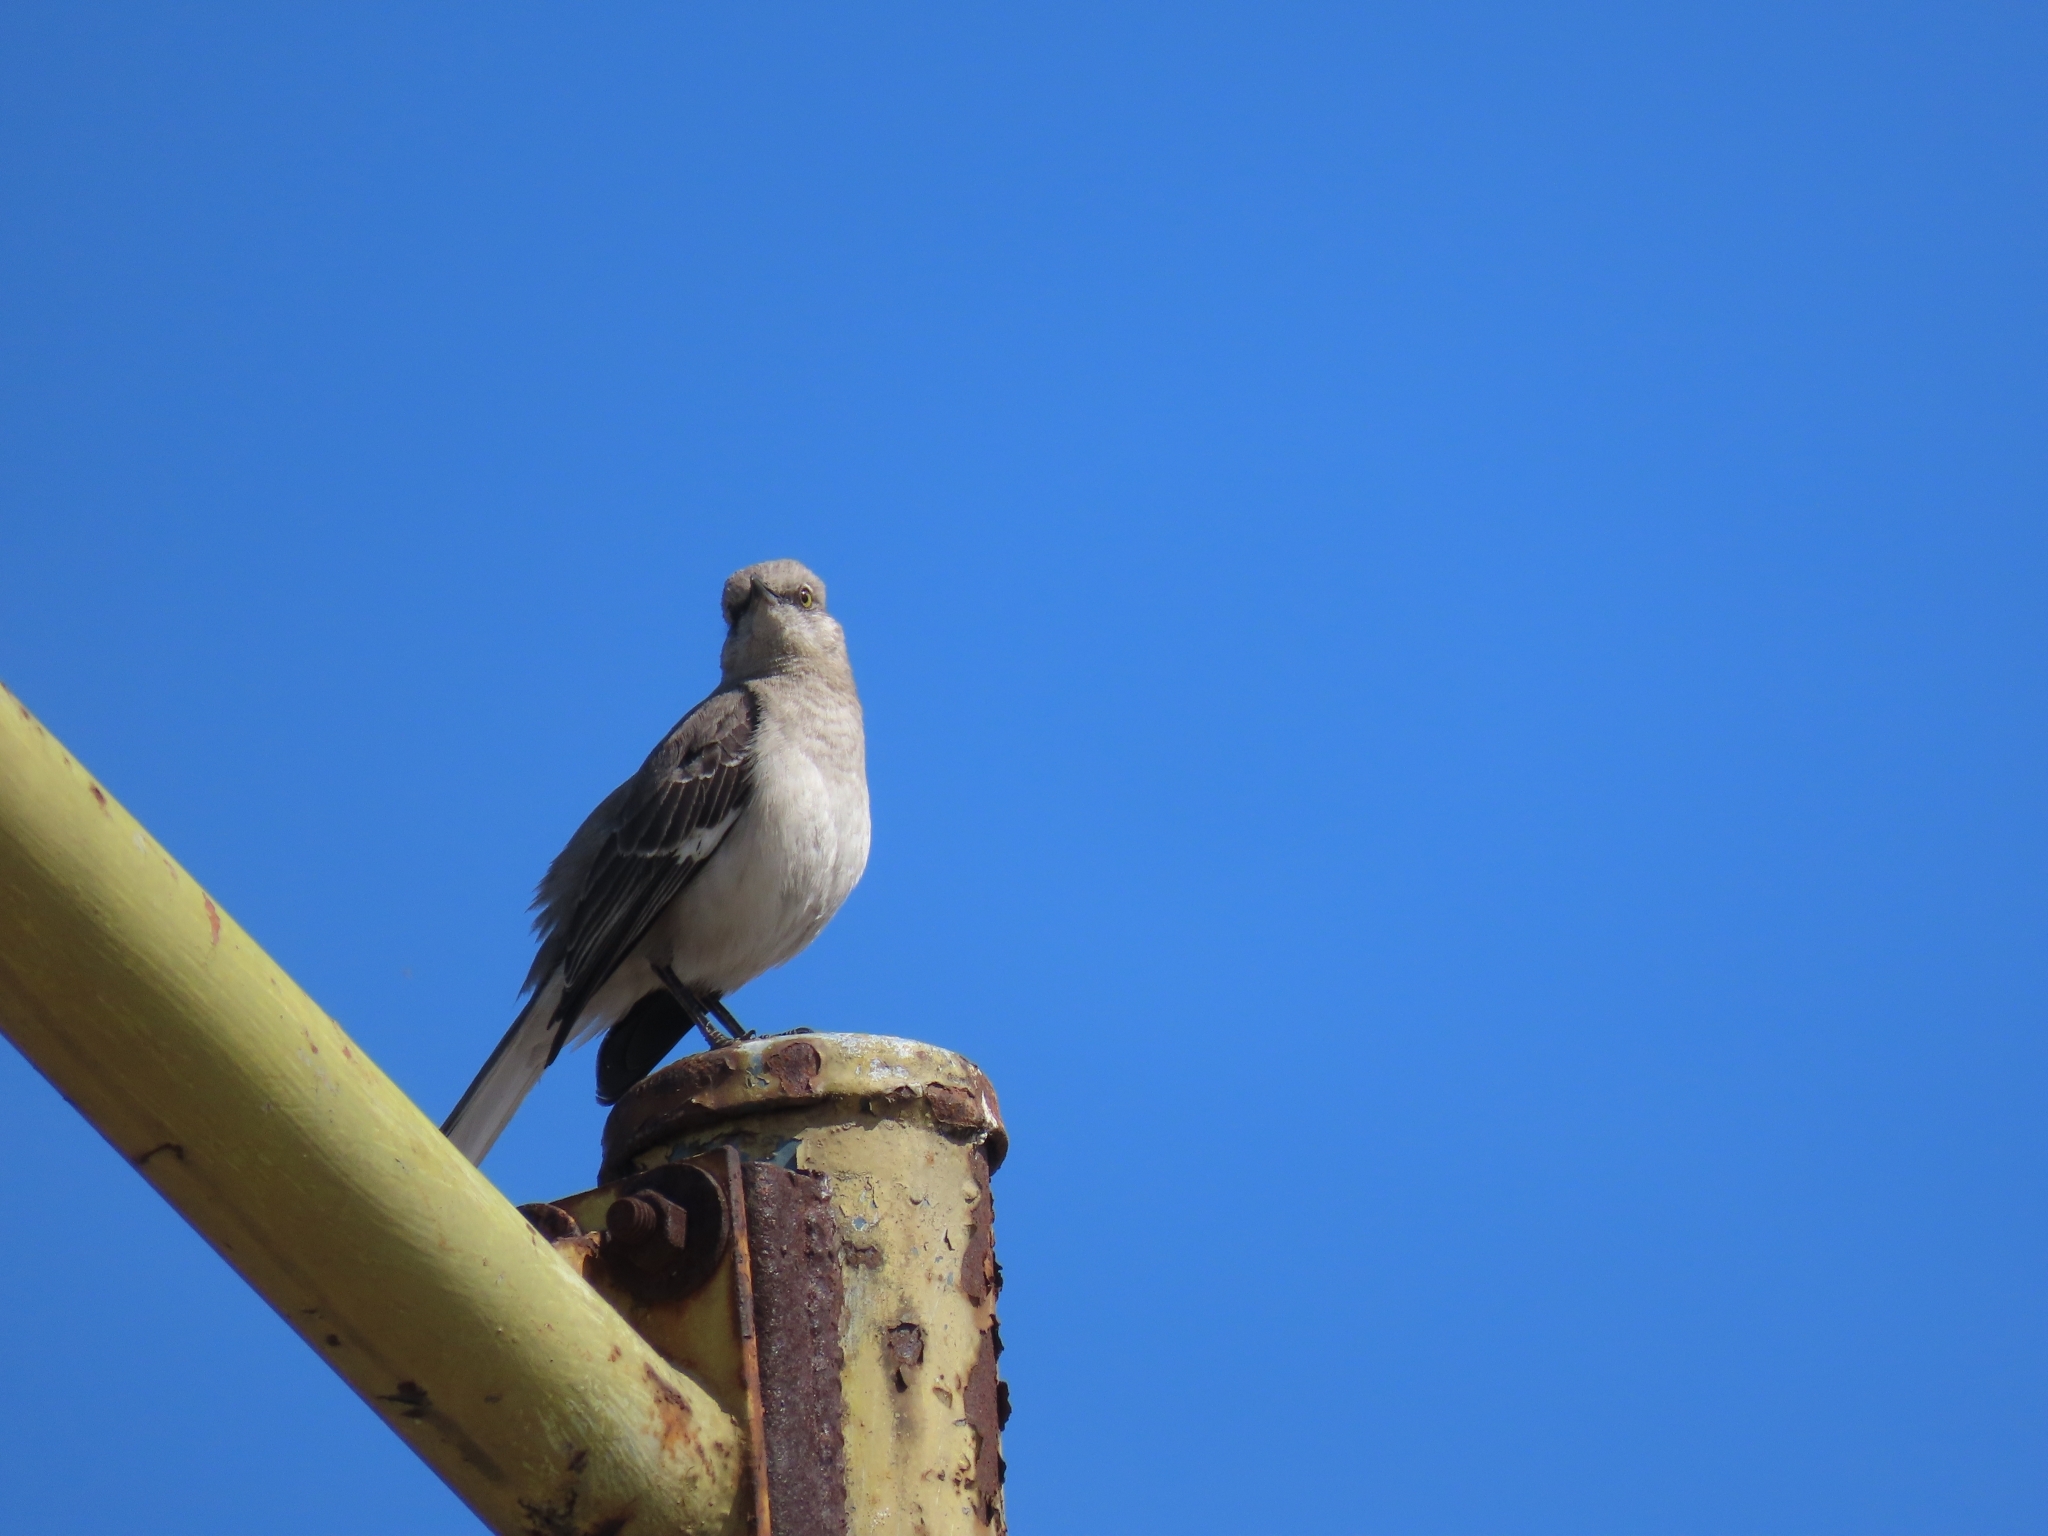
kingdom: Animalia
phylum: Chordata
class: Aves
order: Passeriformes
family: Mimidae
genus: Mimus
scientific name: Mimus polyglottos
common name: Northern mockingbird
